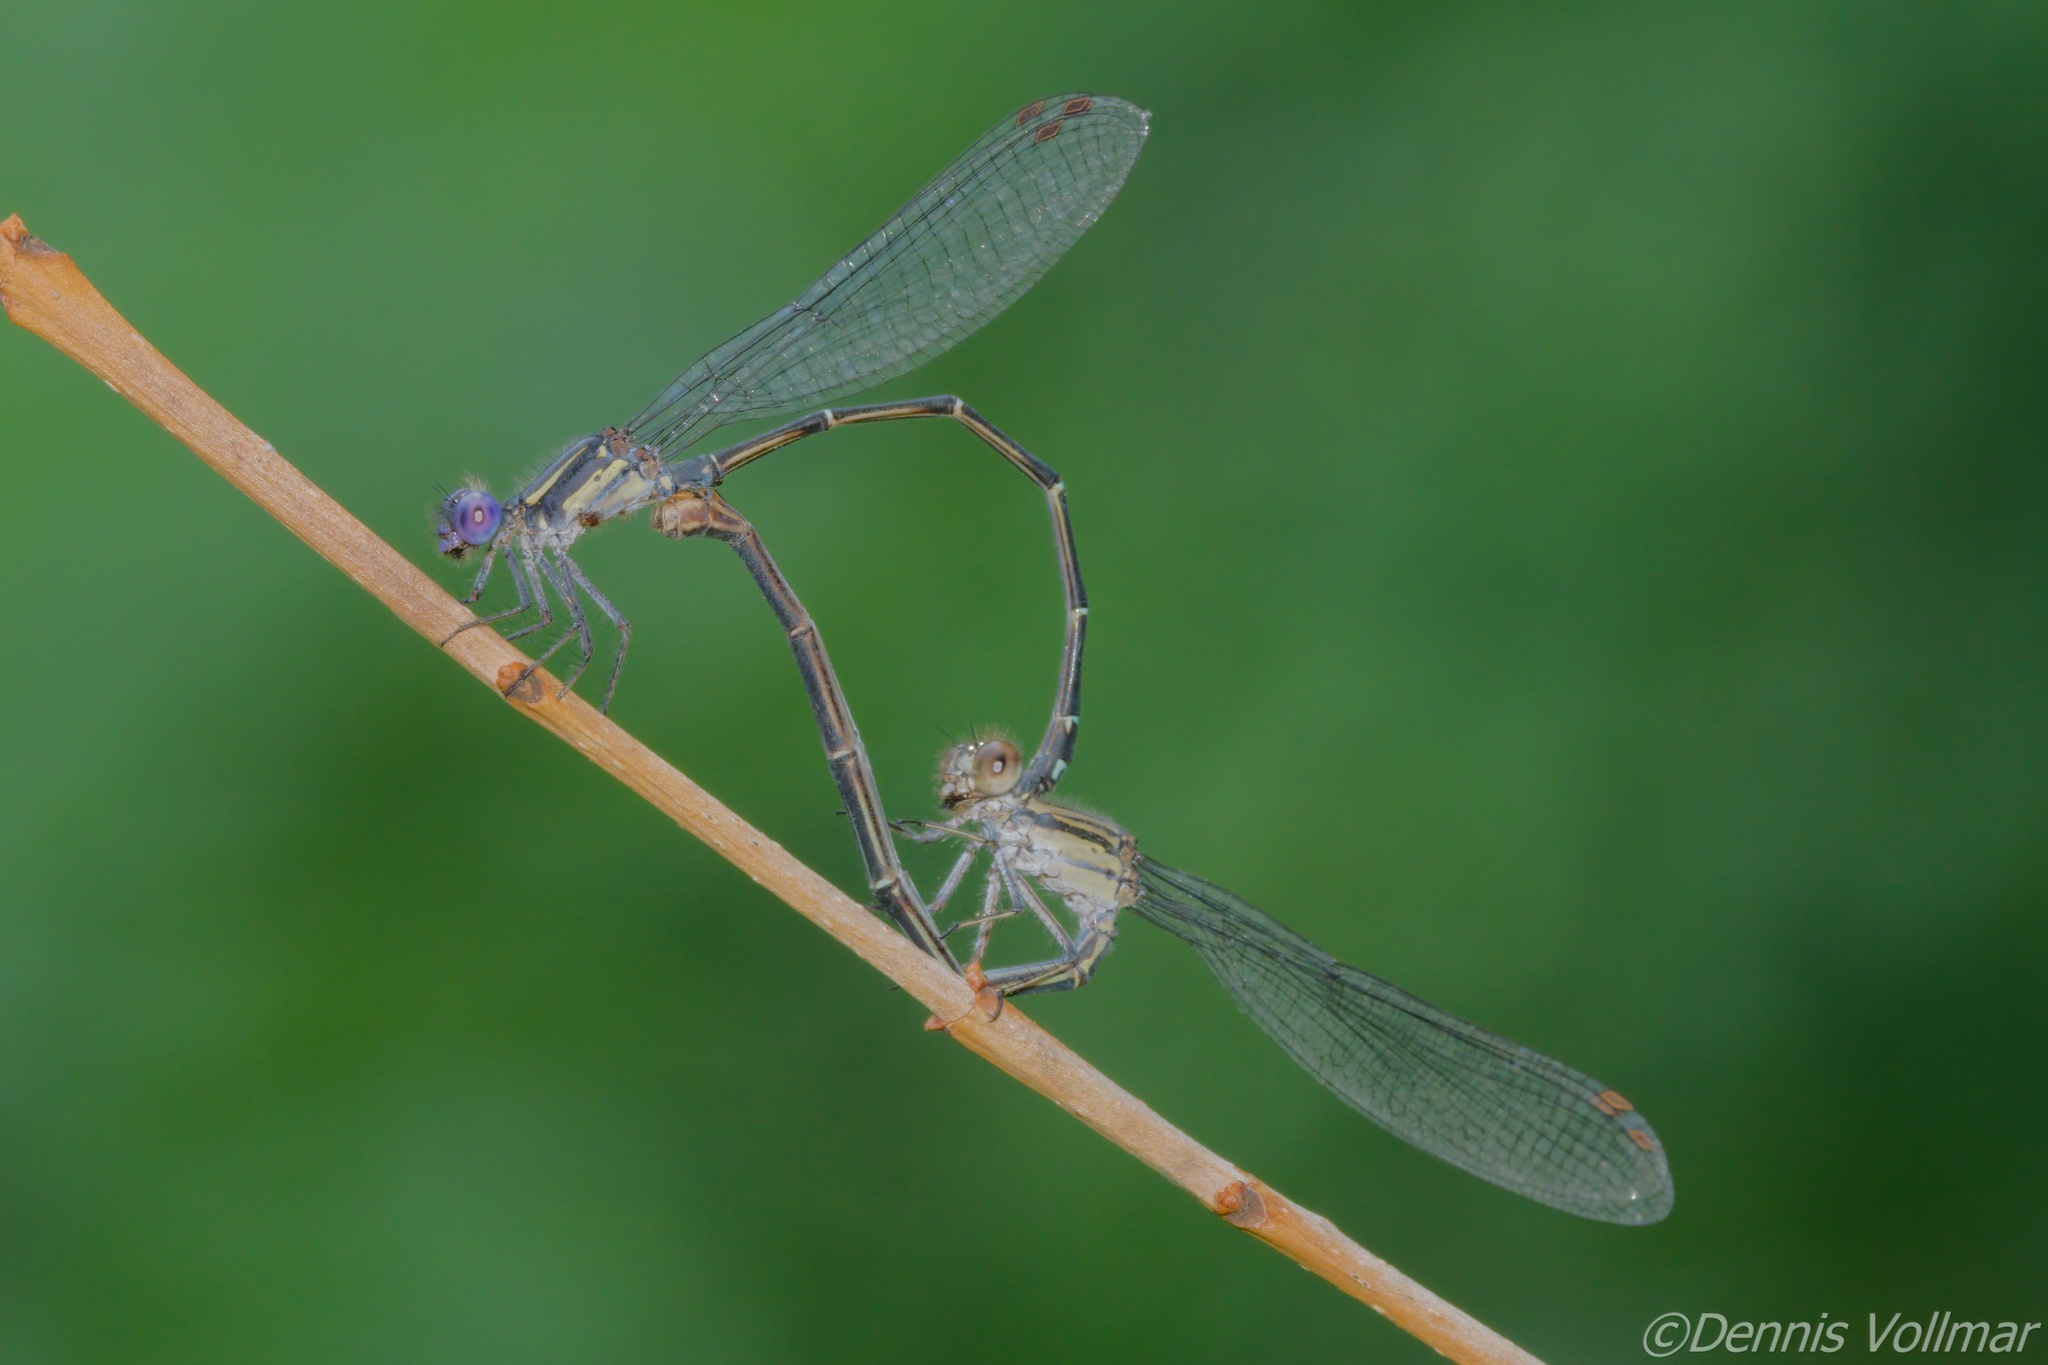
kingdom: Animalia
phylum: Arthropoda
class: Insecta
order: Odonata
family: Coenagrionidae
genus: Argia
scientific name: Argia translata
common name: Dusky dancer
